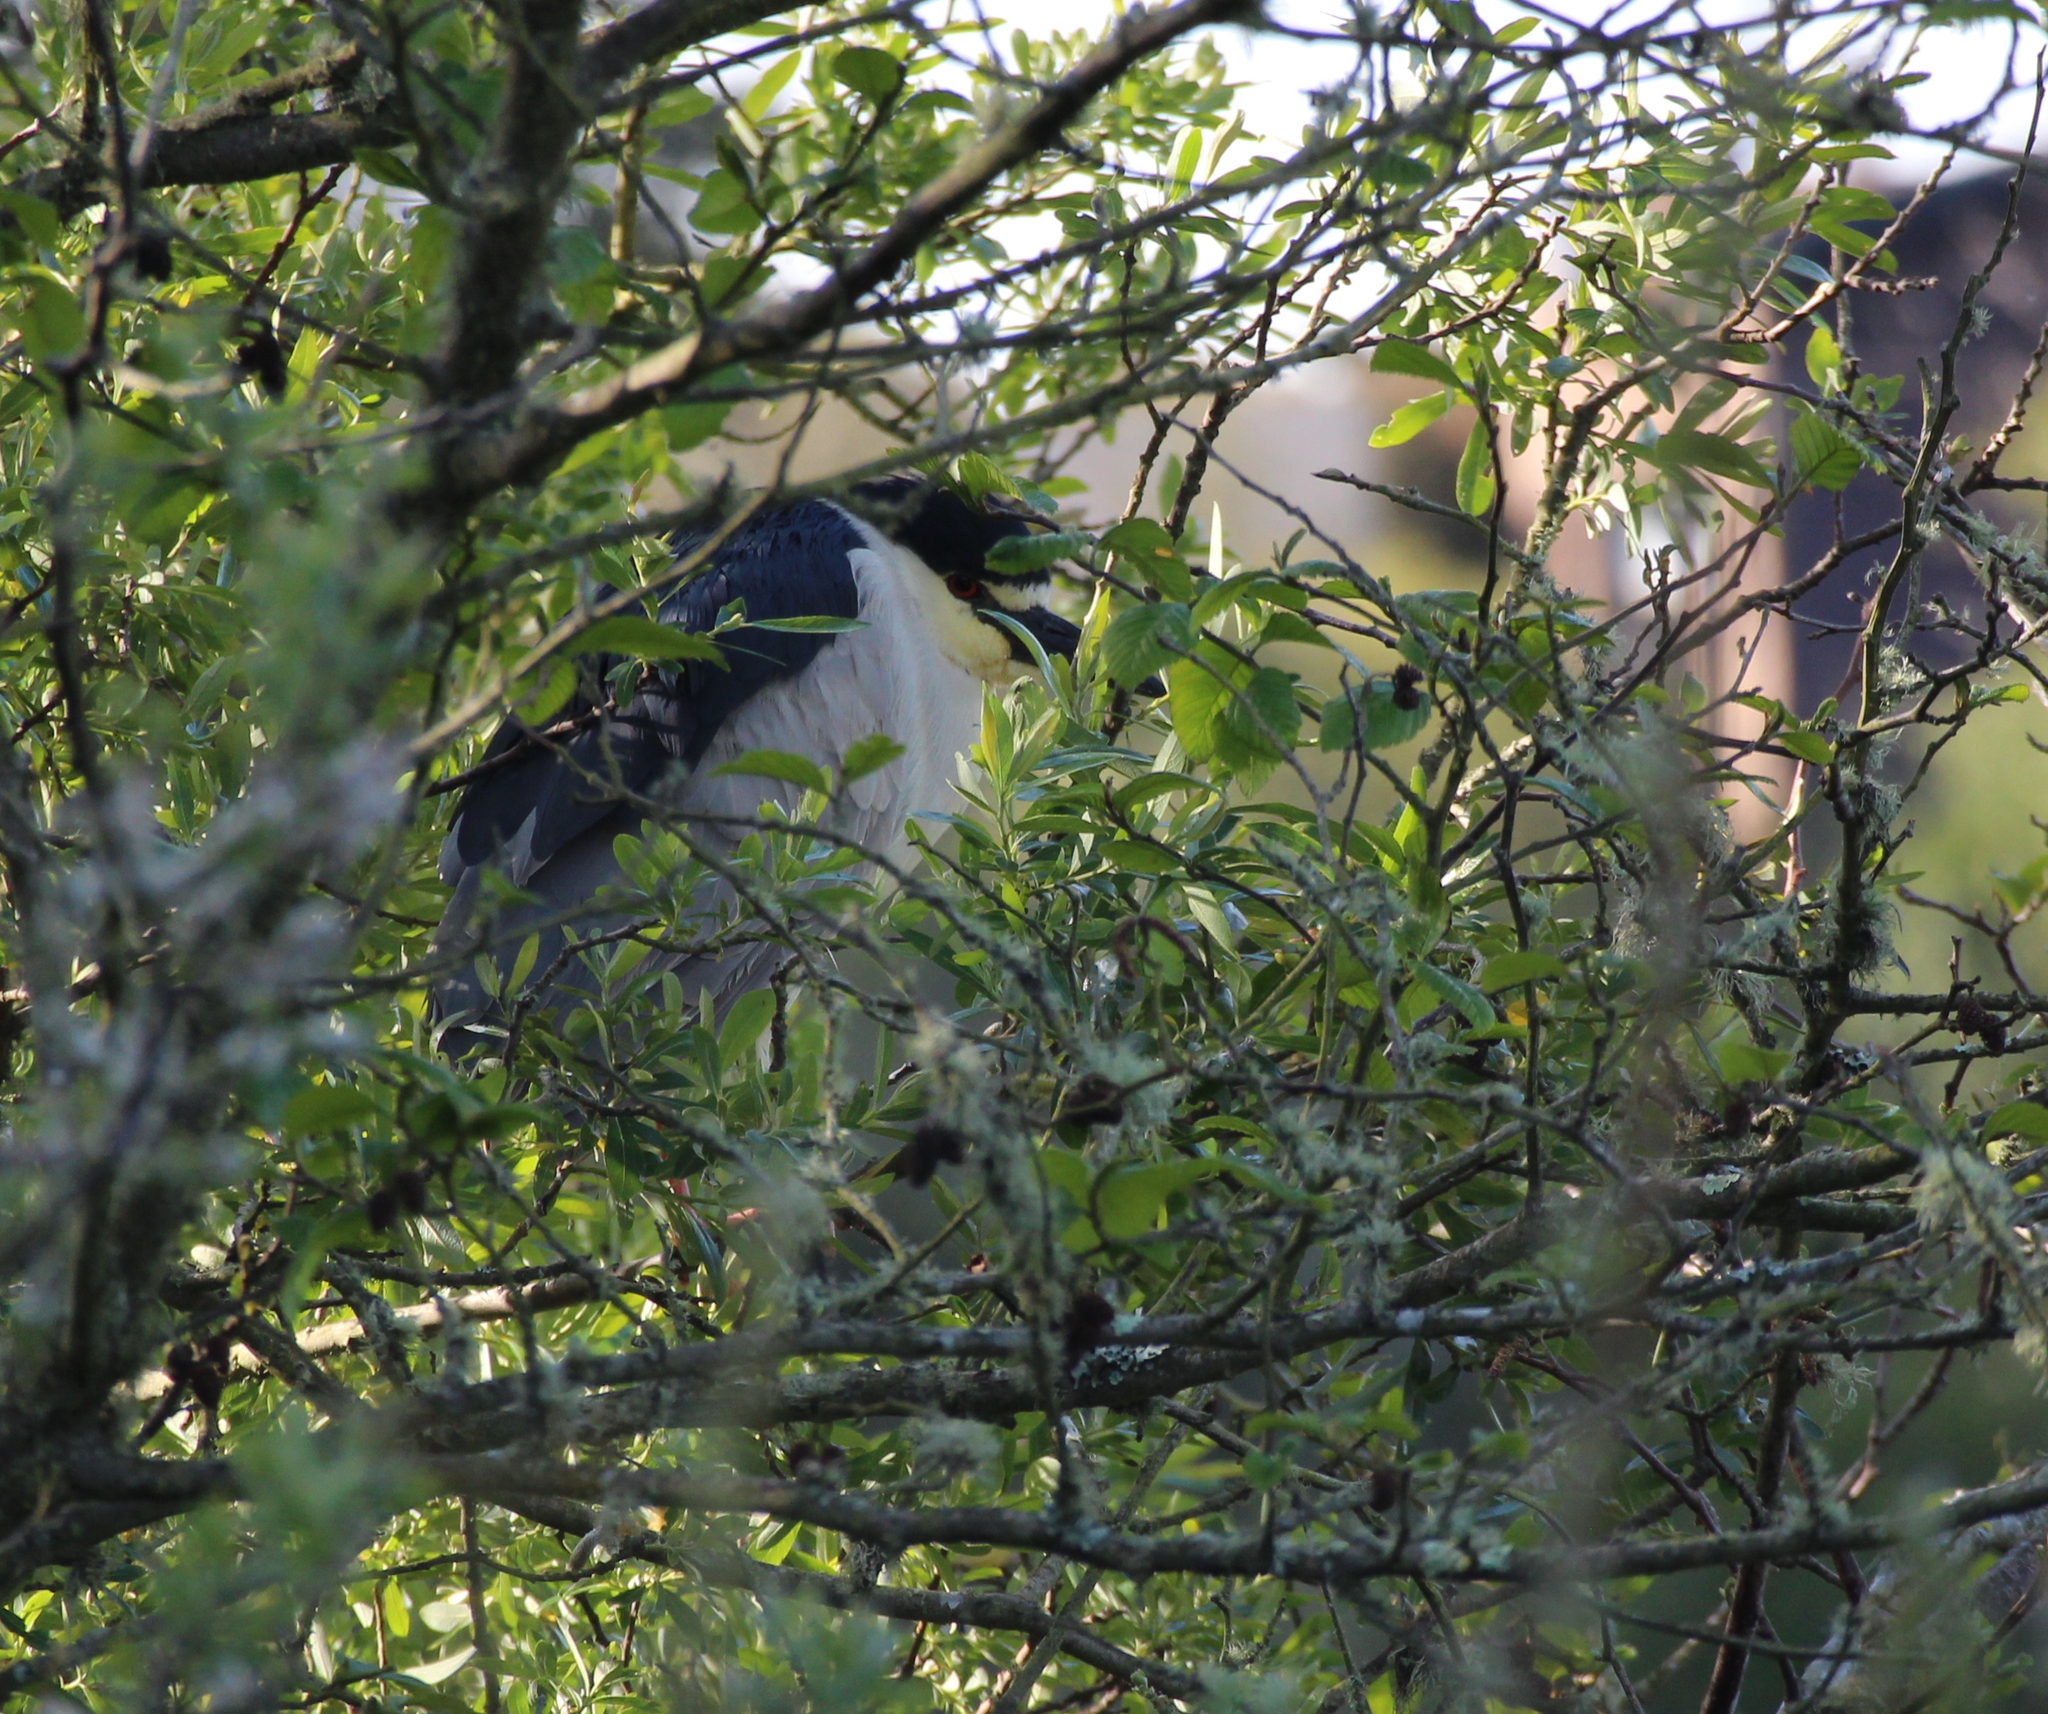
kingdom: Animalia
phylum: Chordata
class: Aves
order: Pelecaniformes
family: Ardeidae
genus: Nycticorax
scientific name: Nycticorax nycticorax
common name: Black-crowned night heron
